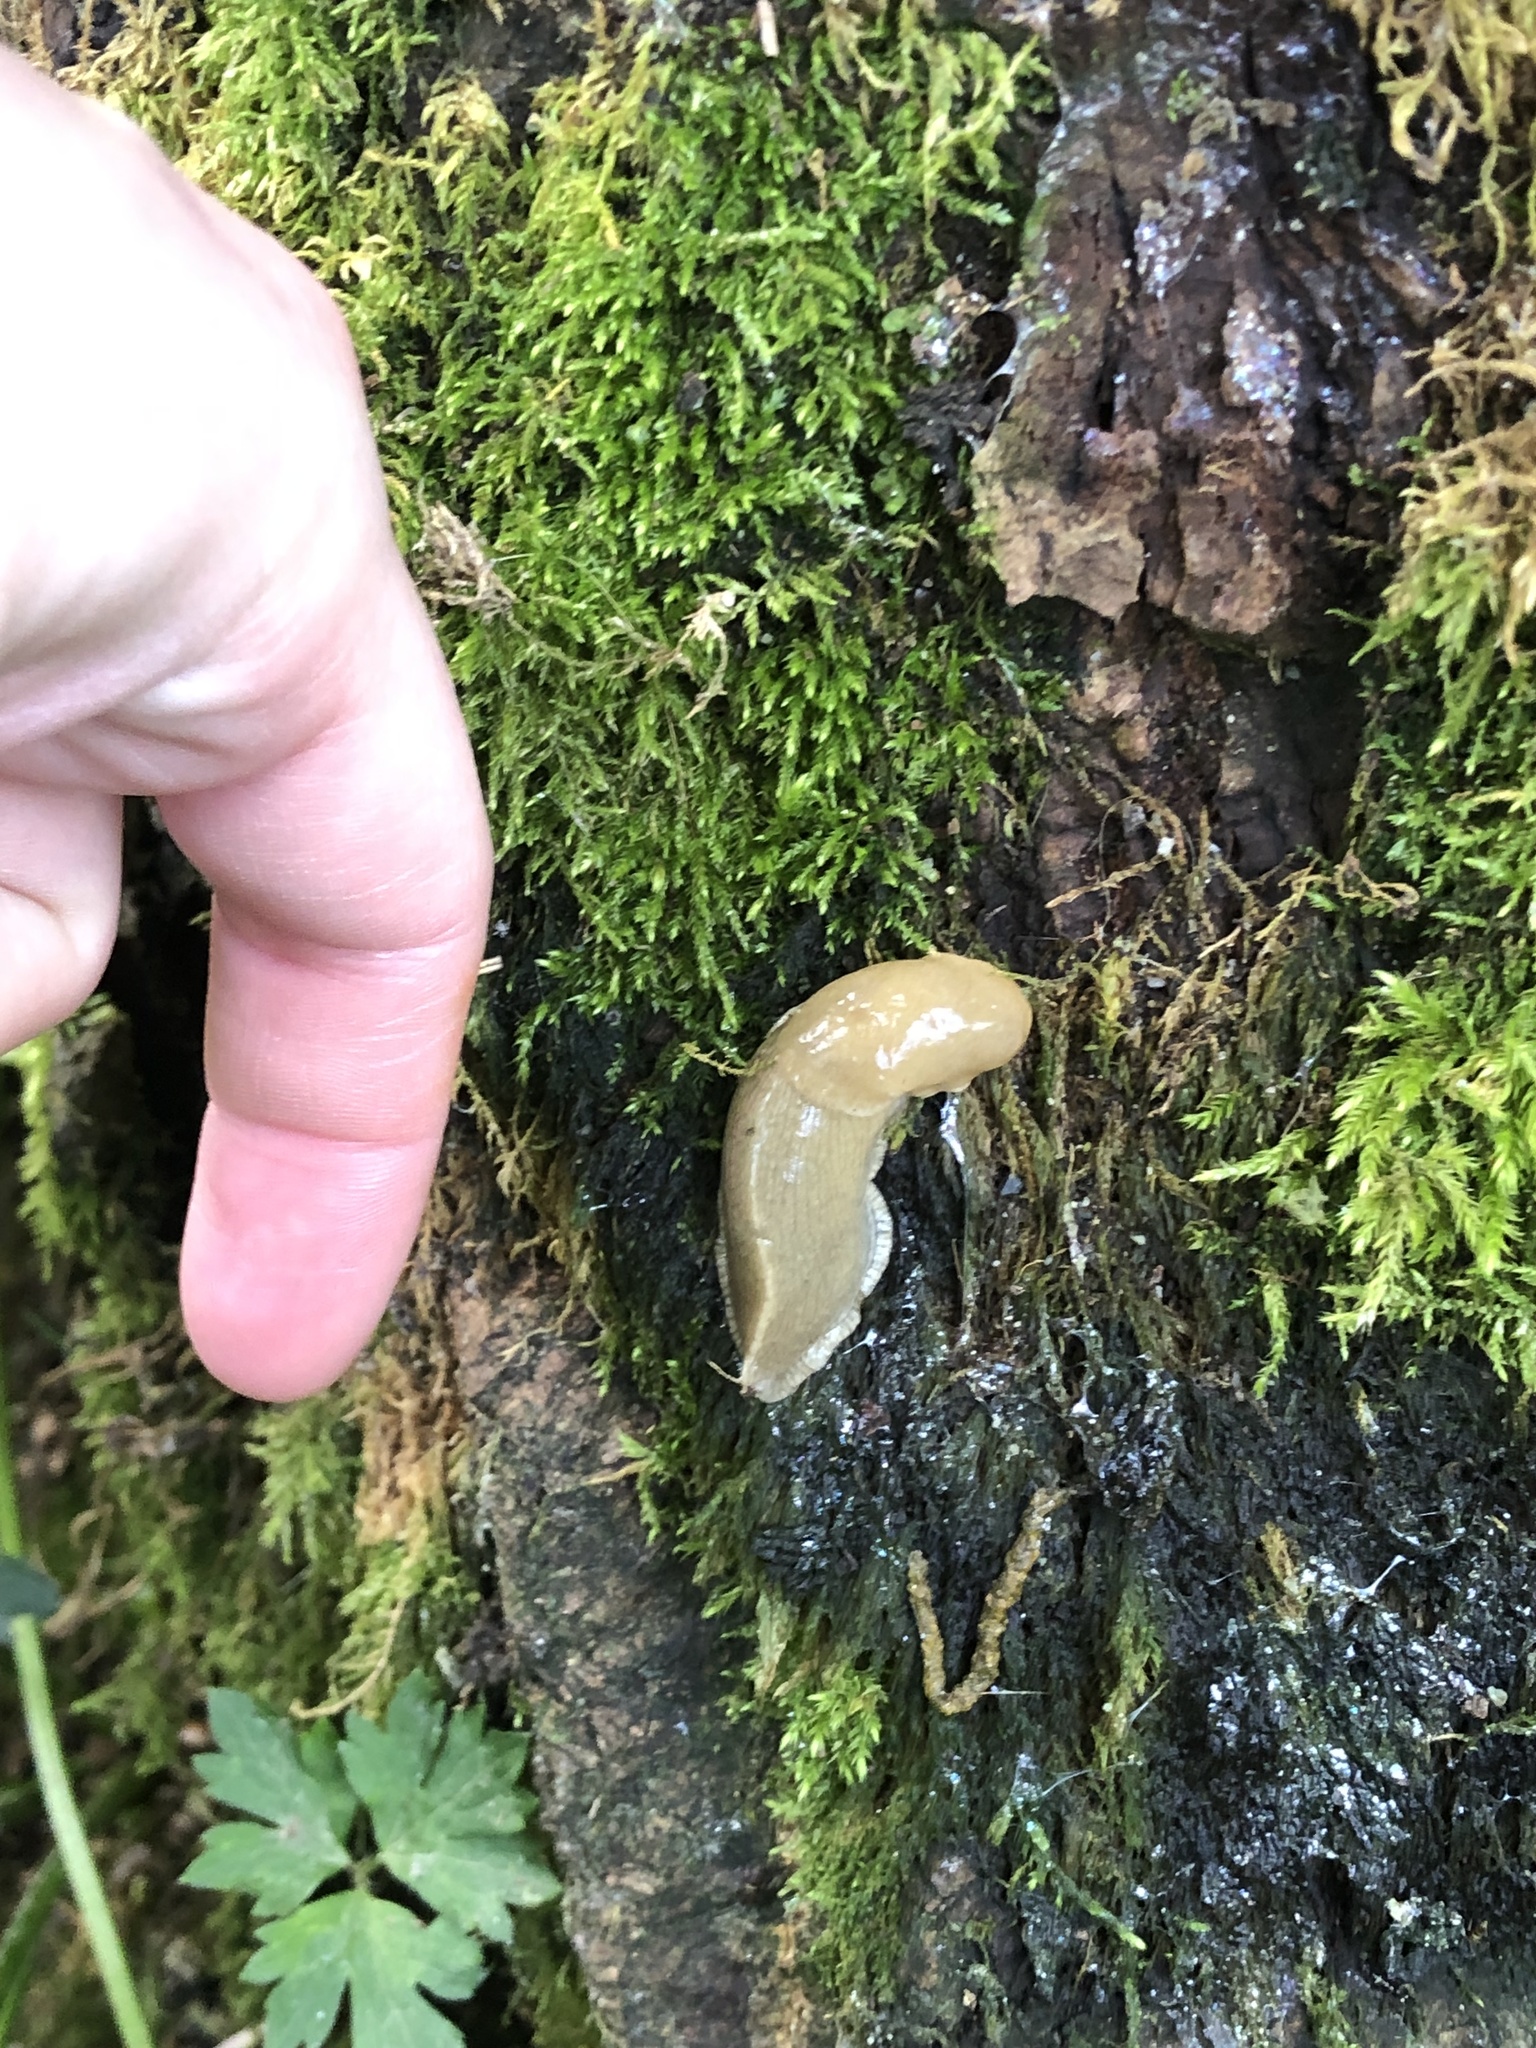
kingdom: Animalia
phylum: Mollusca
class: Gastropoda
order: Stylommatophora
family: Ariolimacidae
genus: Ariolimax
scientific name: Ariolimax columbianus
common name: Pacific banana slug
